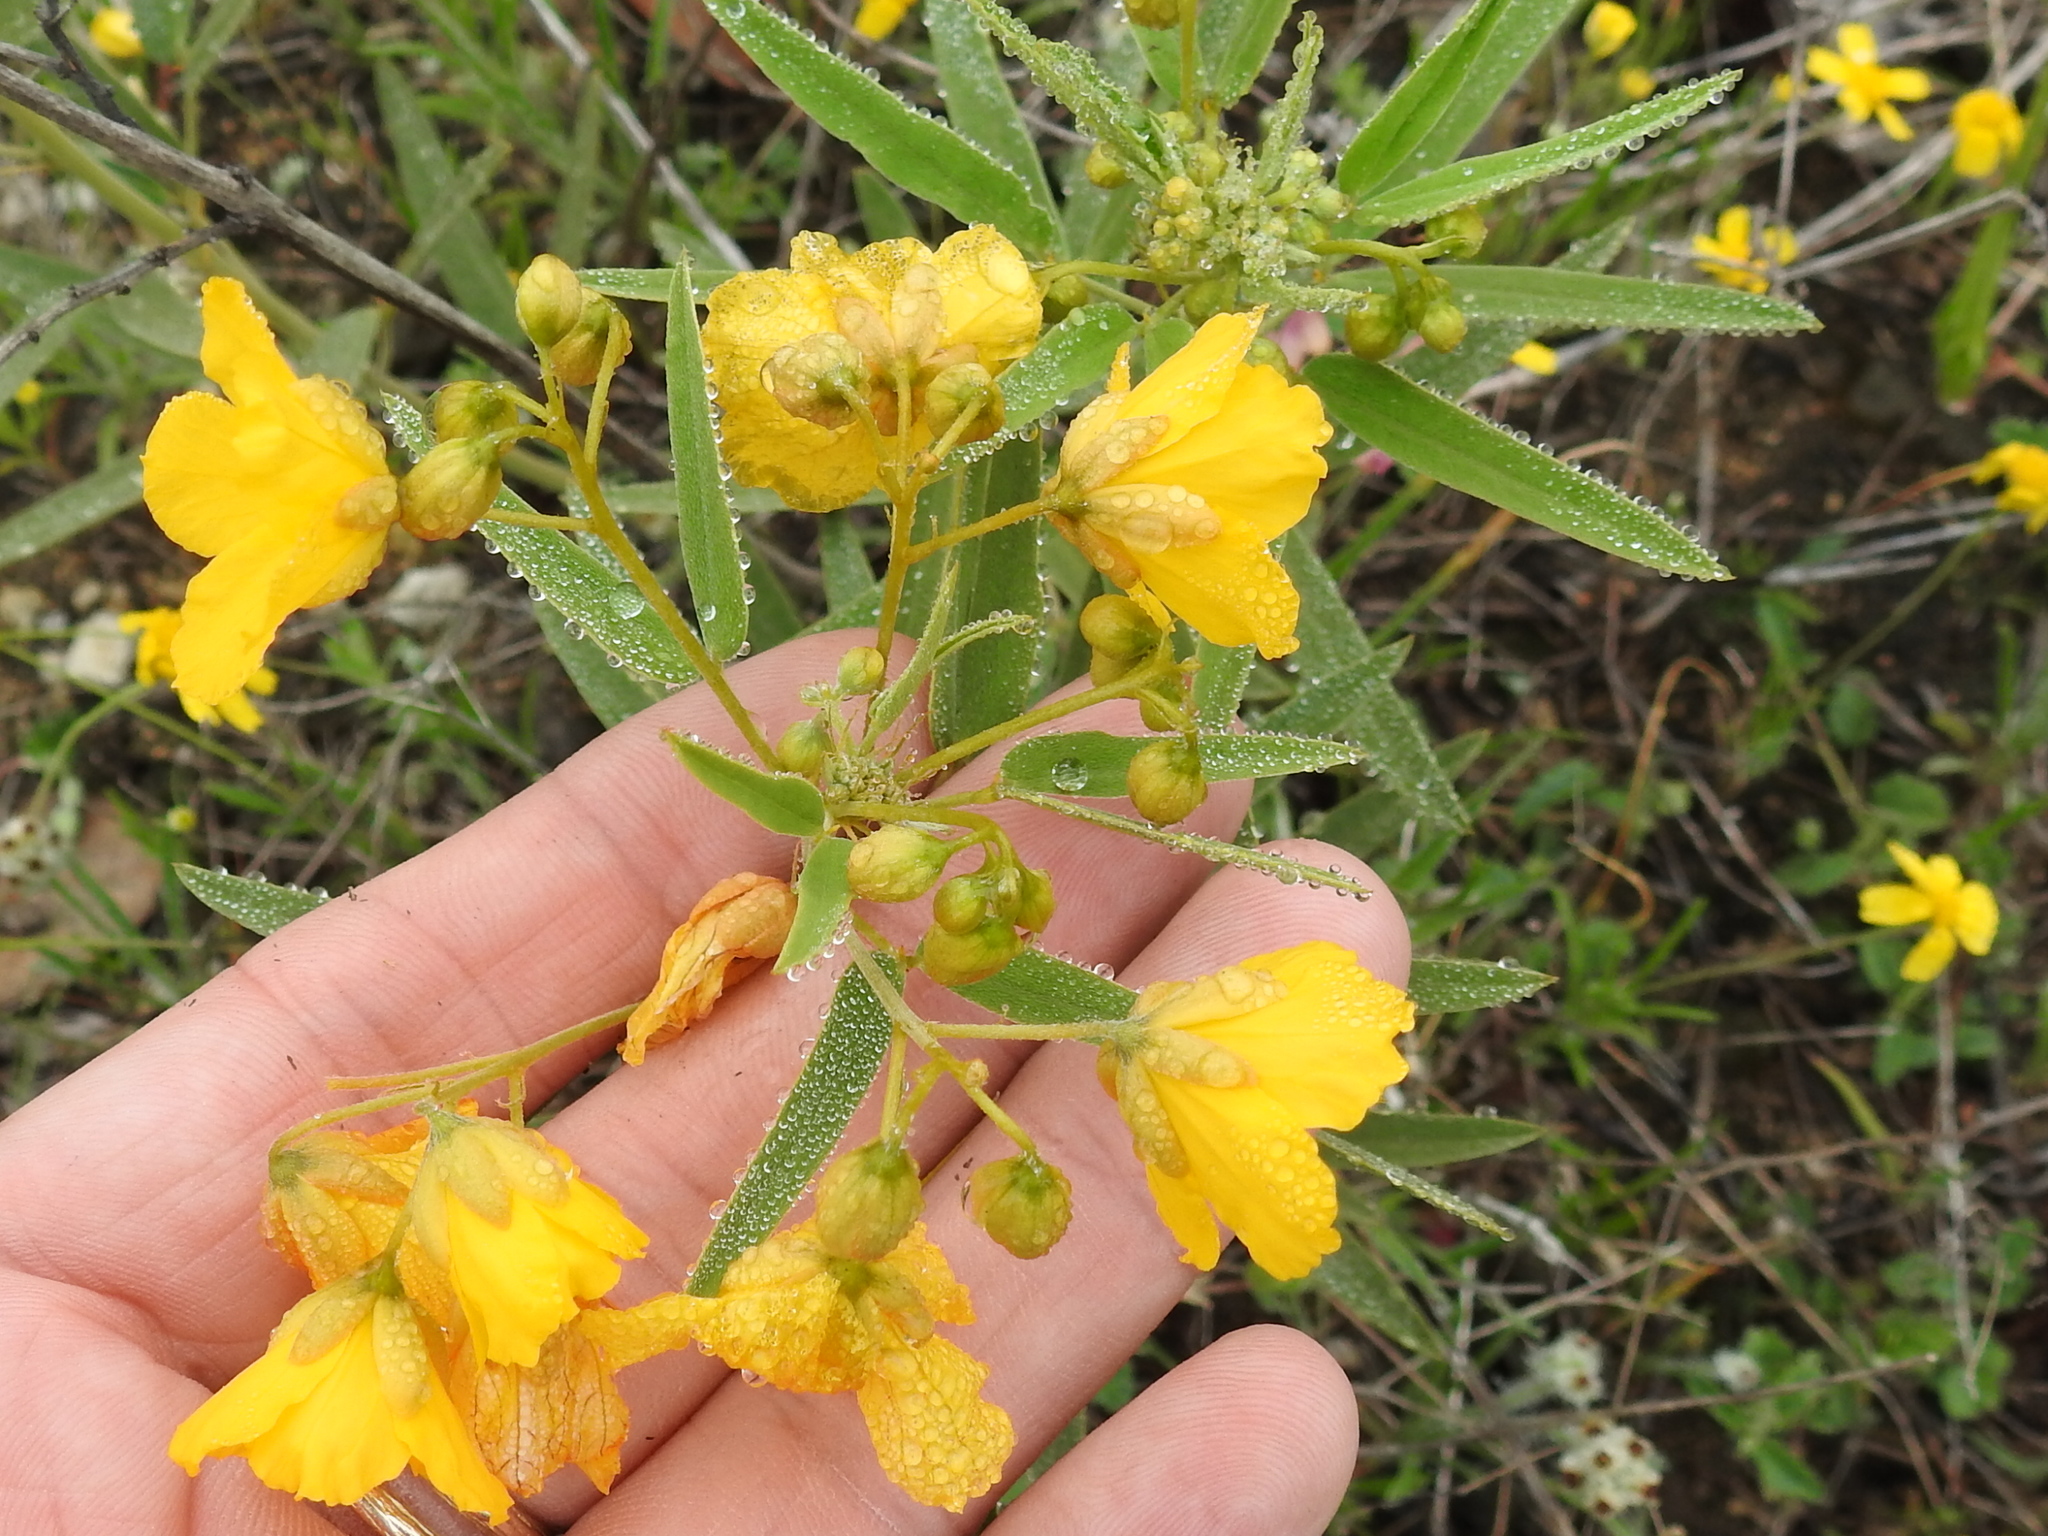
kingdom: Plantae
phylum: Tracheophyta
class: Magnoliopsida
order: Fabales
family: Fabaceae
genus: Senna
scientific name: Senna roemeriana
